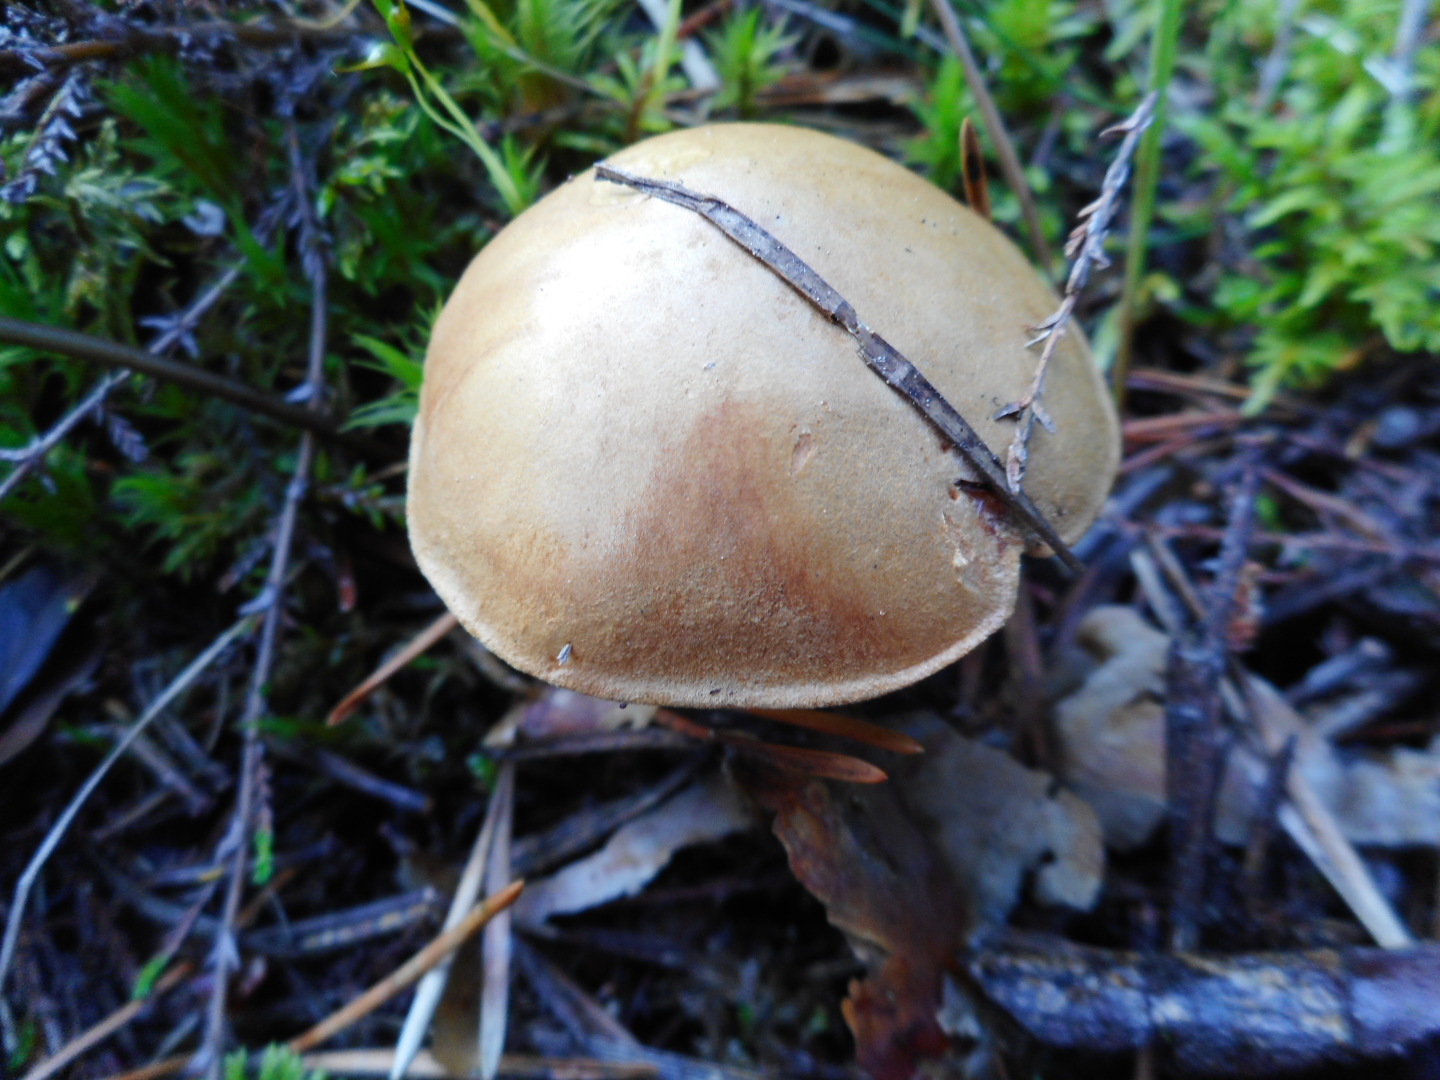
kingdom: Fungi
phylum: Basidiomycota
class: Agaricomycetes
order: Boletales
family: Boletaceae
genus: Chalciporus
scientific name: Chalciporus piperatus
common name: Peppery bolete
